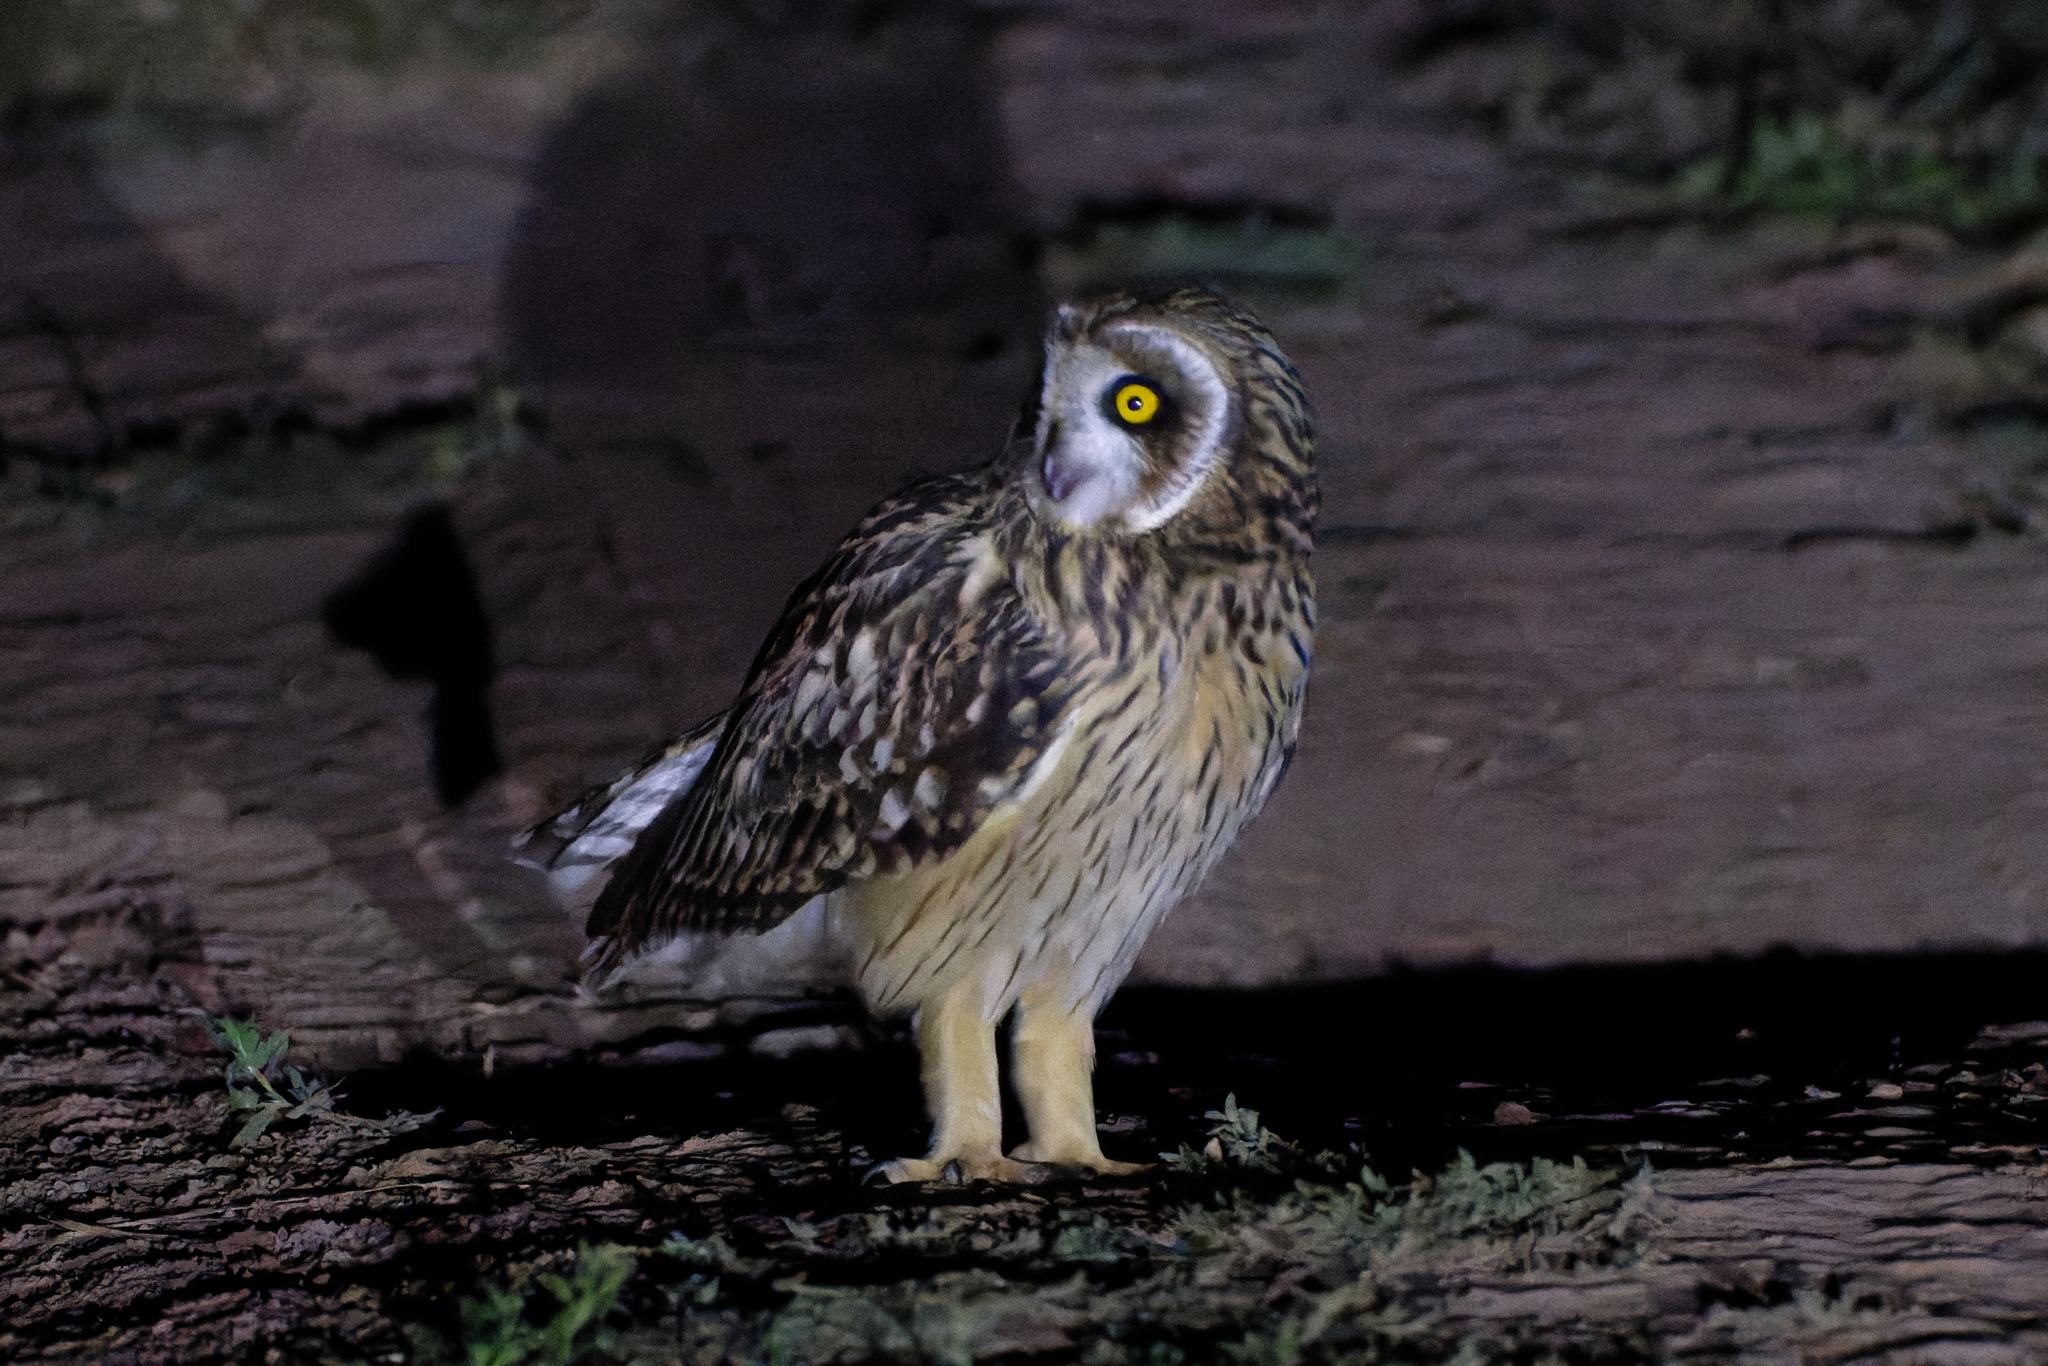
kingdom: Animalia
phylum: Chordata
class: Aves
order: Strigiformes
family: Strigidae
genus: Asio
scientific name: Asio flammeus
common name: Short-eared owl
